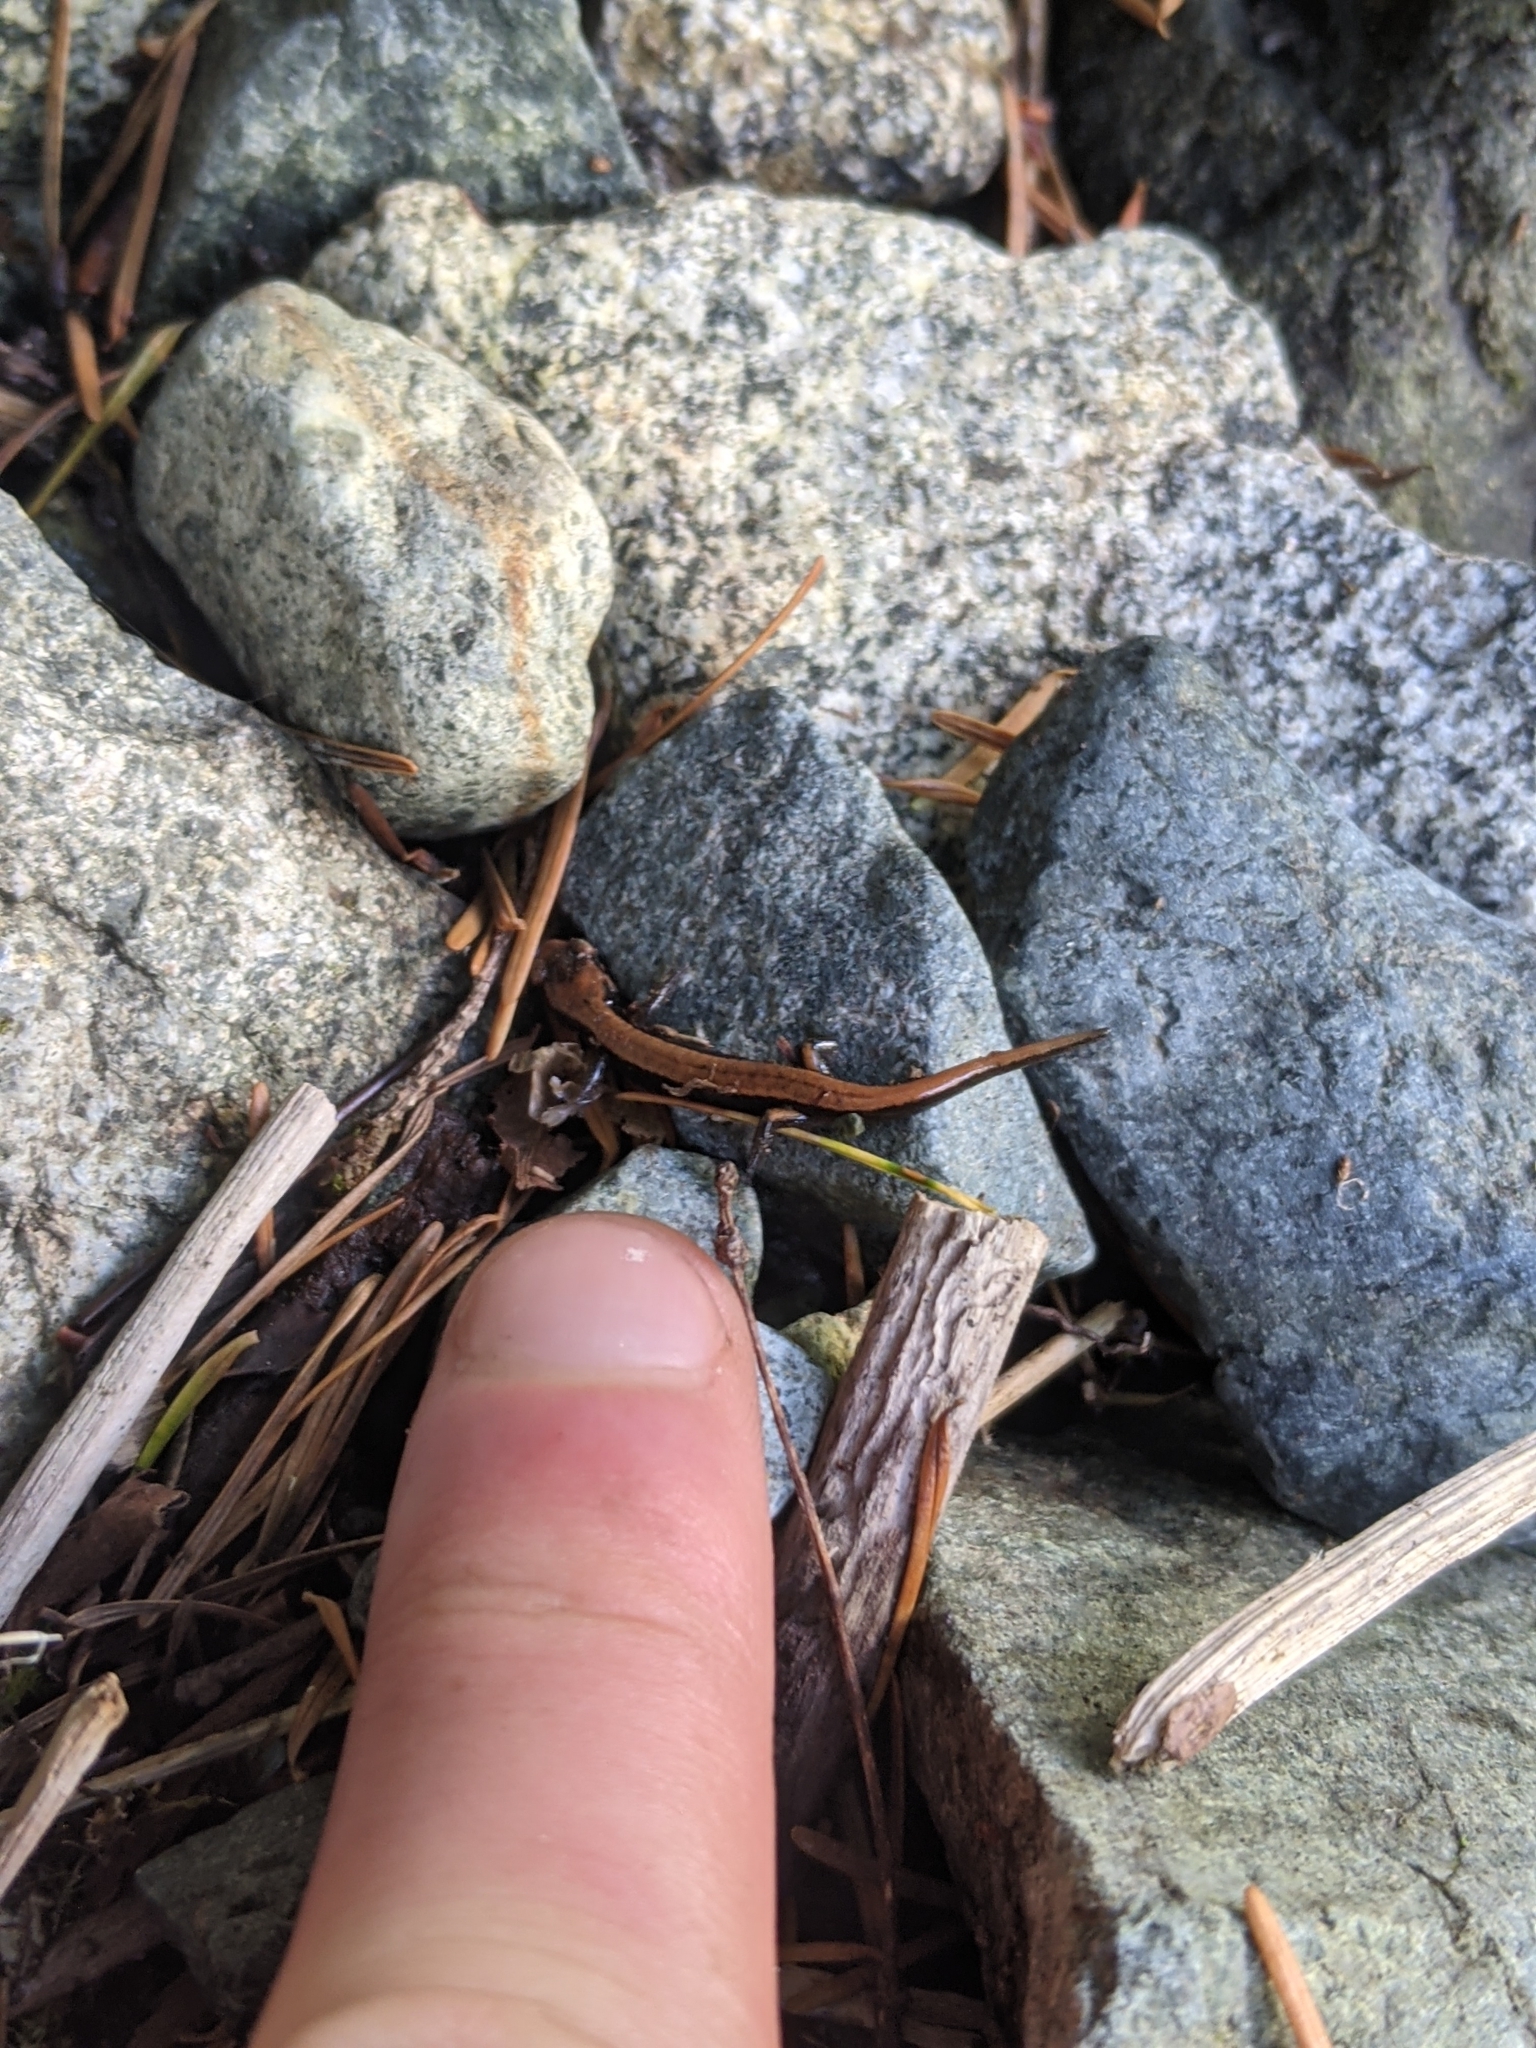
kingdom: Animalia
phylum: Chordata
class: Amphibia
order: Caudata
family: Plethodontidae
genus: Plethodon
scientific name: Plethodon vehiculum
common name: Western red-backed salamander
